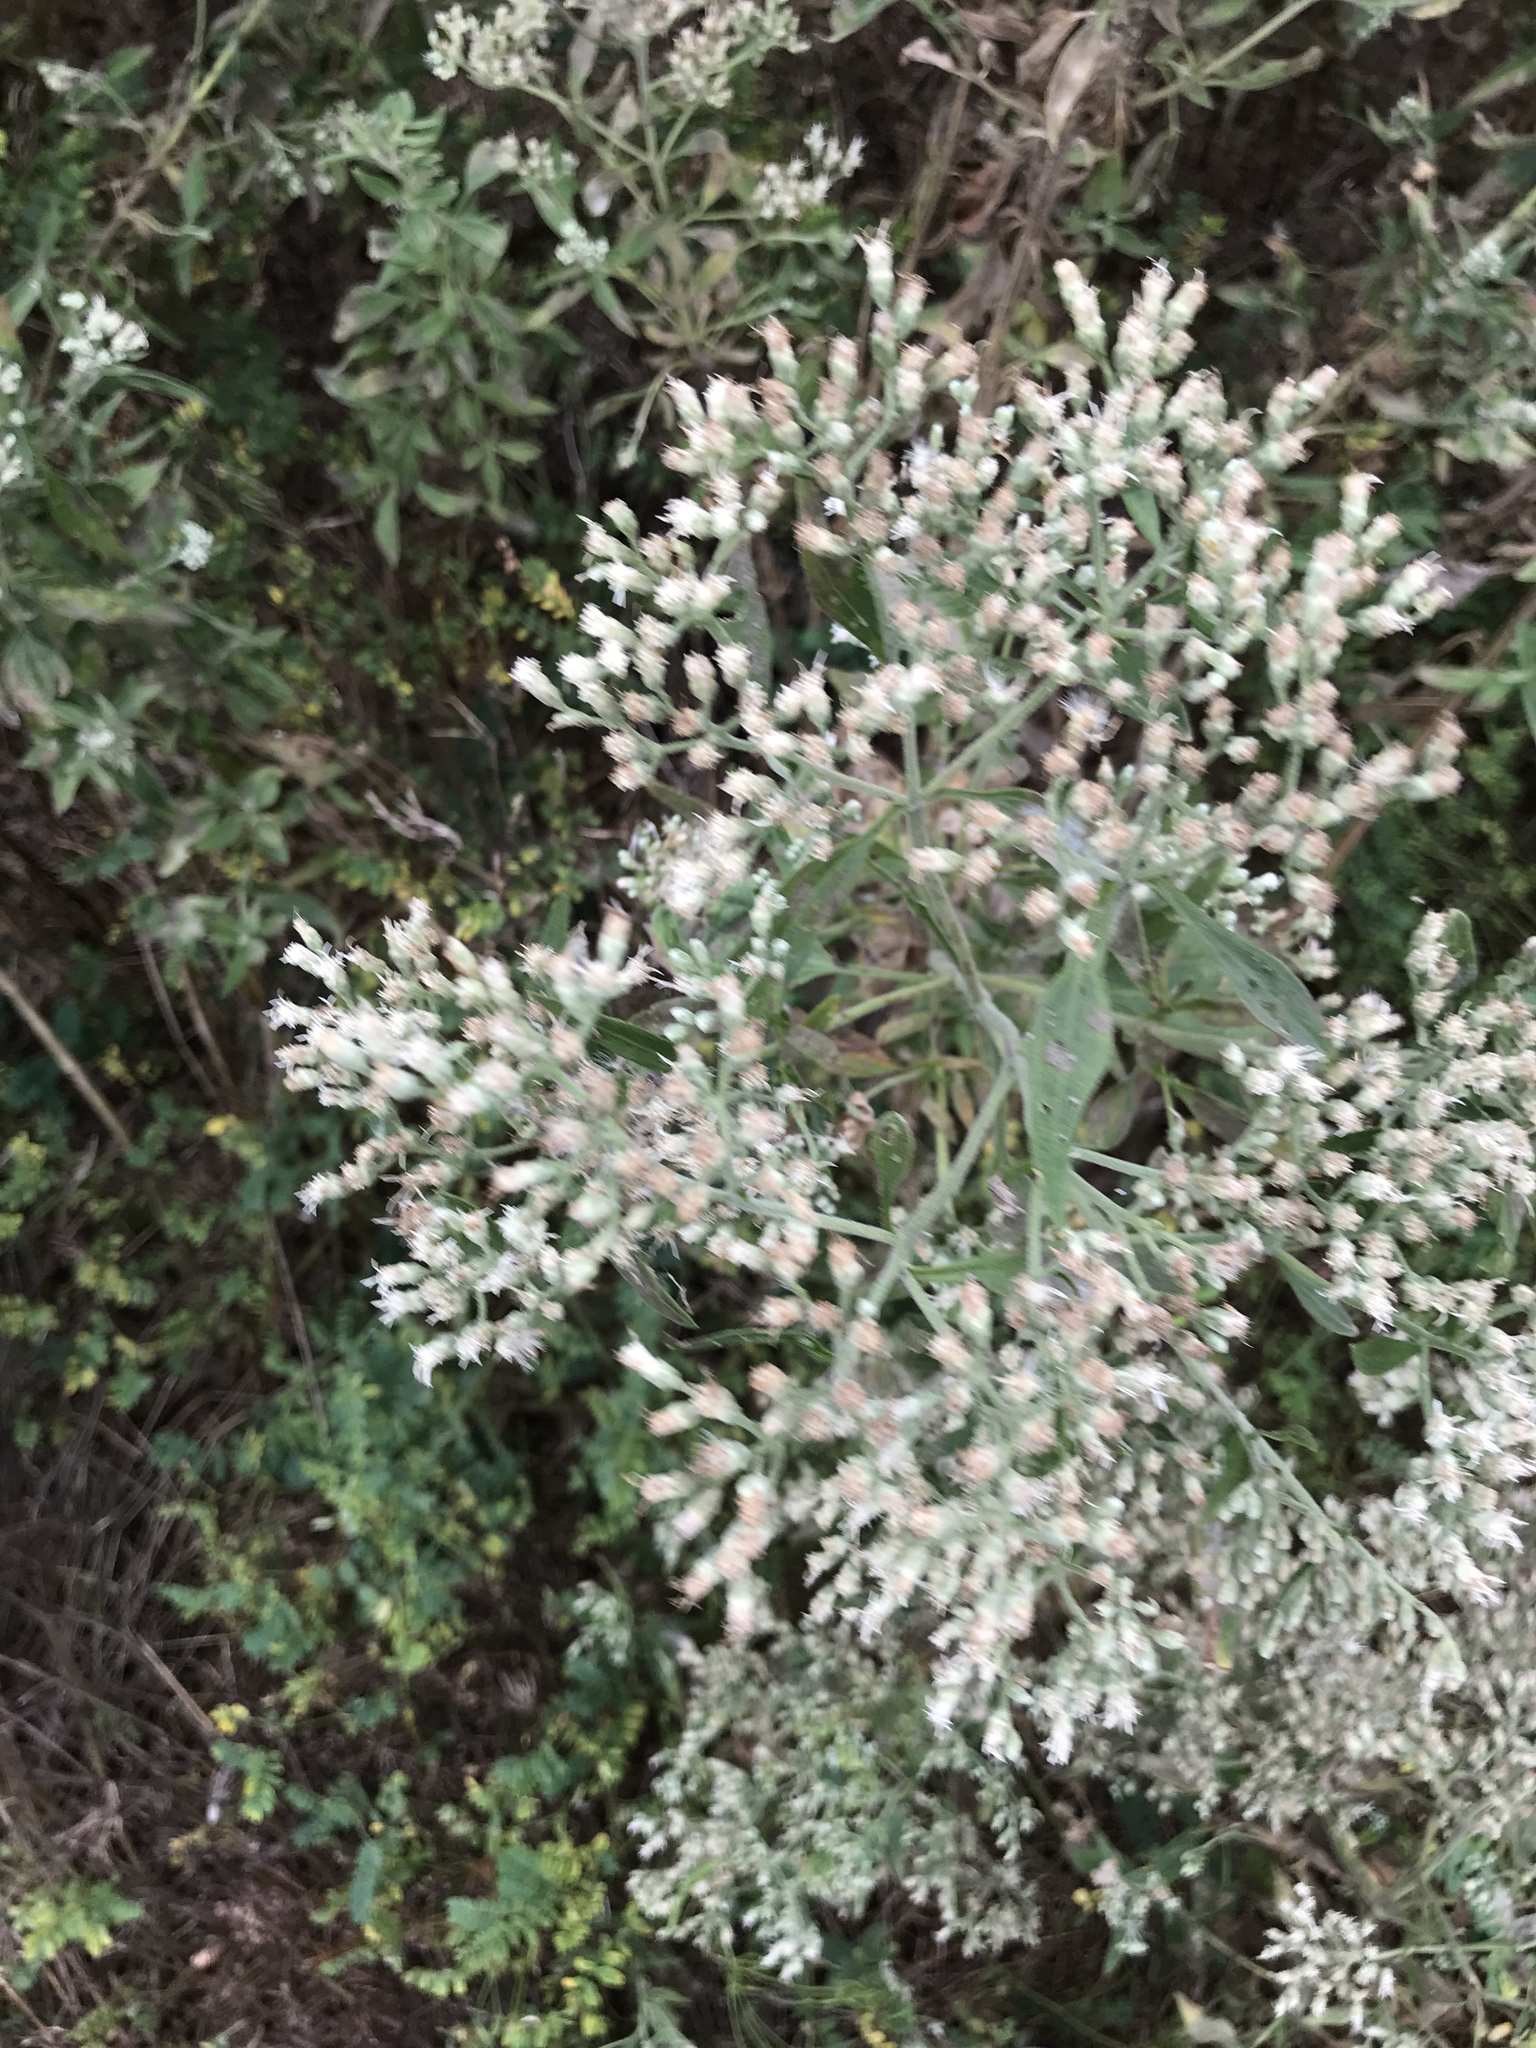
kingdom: Plantae
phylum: Tracheophyta
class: Magnoliopsida
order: Asterales
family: Asteraceae
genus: Eupatorium
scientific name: Eupatorium serotinum
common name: Late boneset
